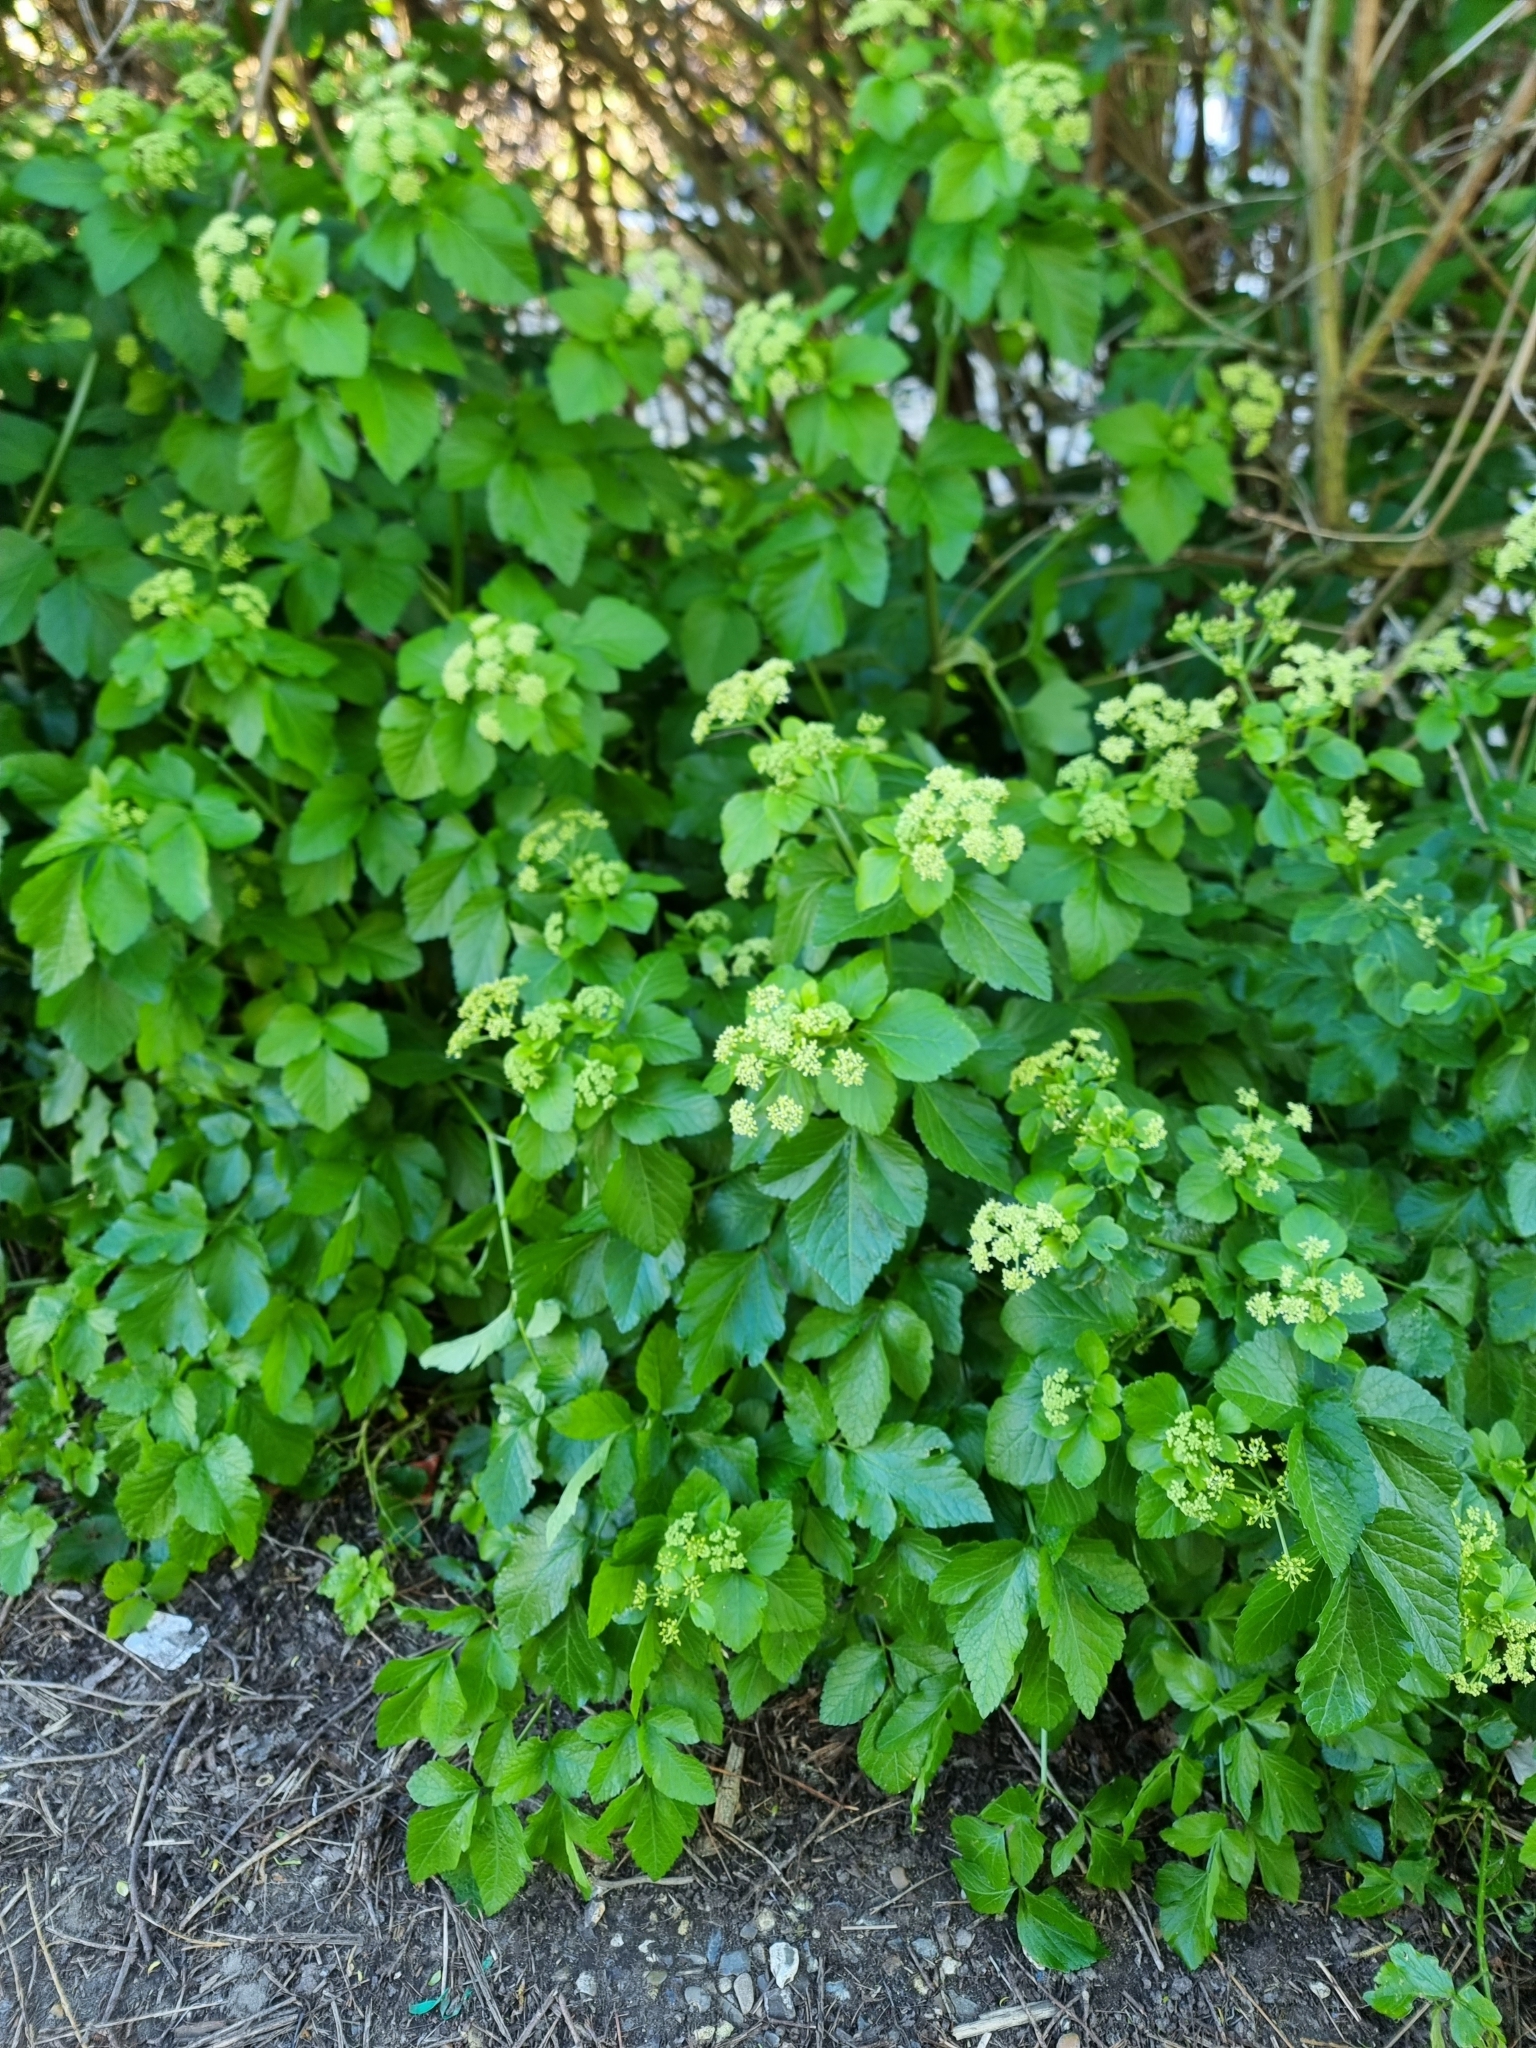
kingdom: Plantae
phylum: Tracheophyta
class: Magnoliopsida
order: Apiales
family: Apiaceae
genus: Smyrnium
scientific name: Smyrnium olusatrum
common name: Alexanders
